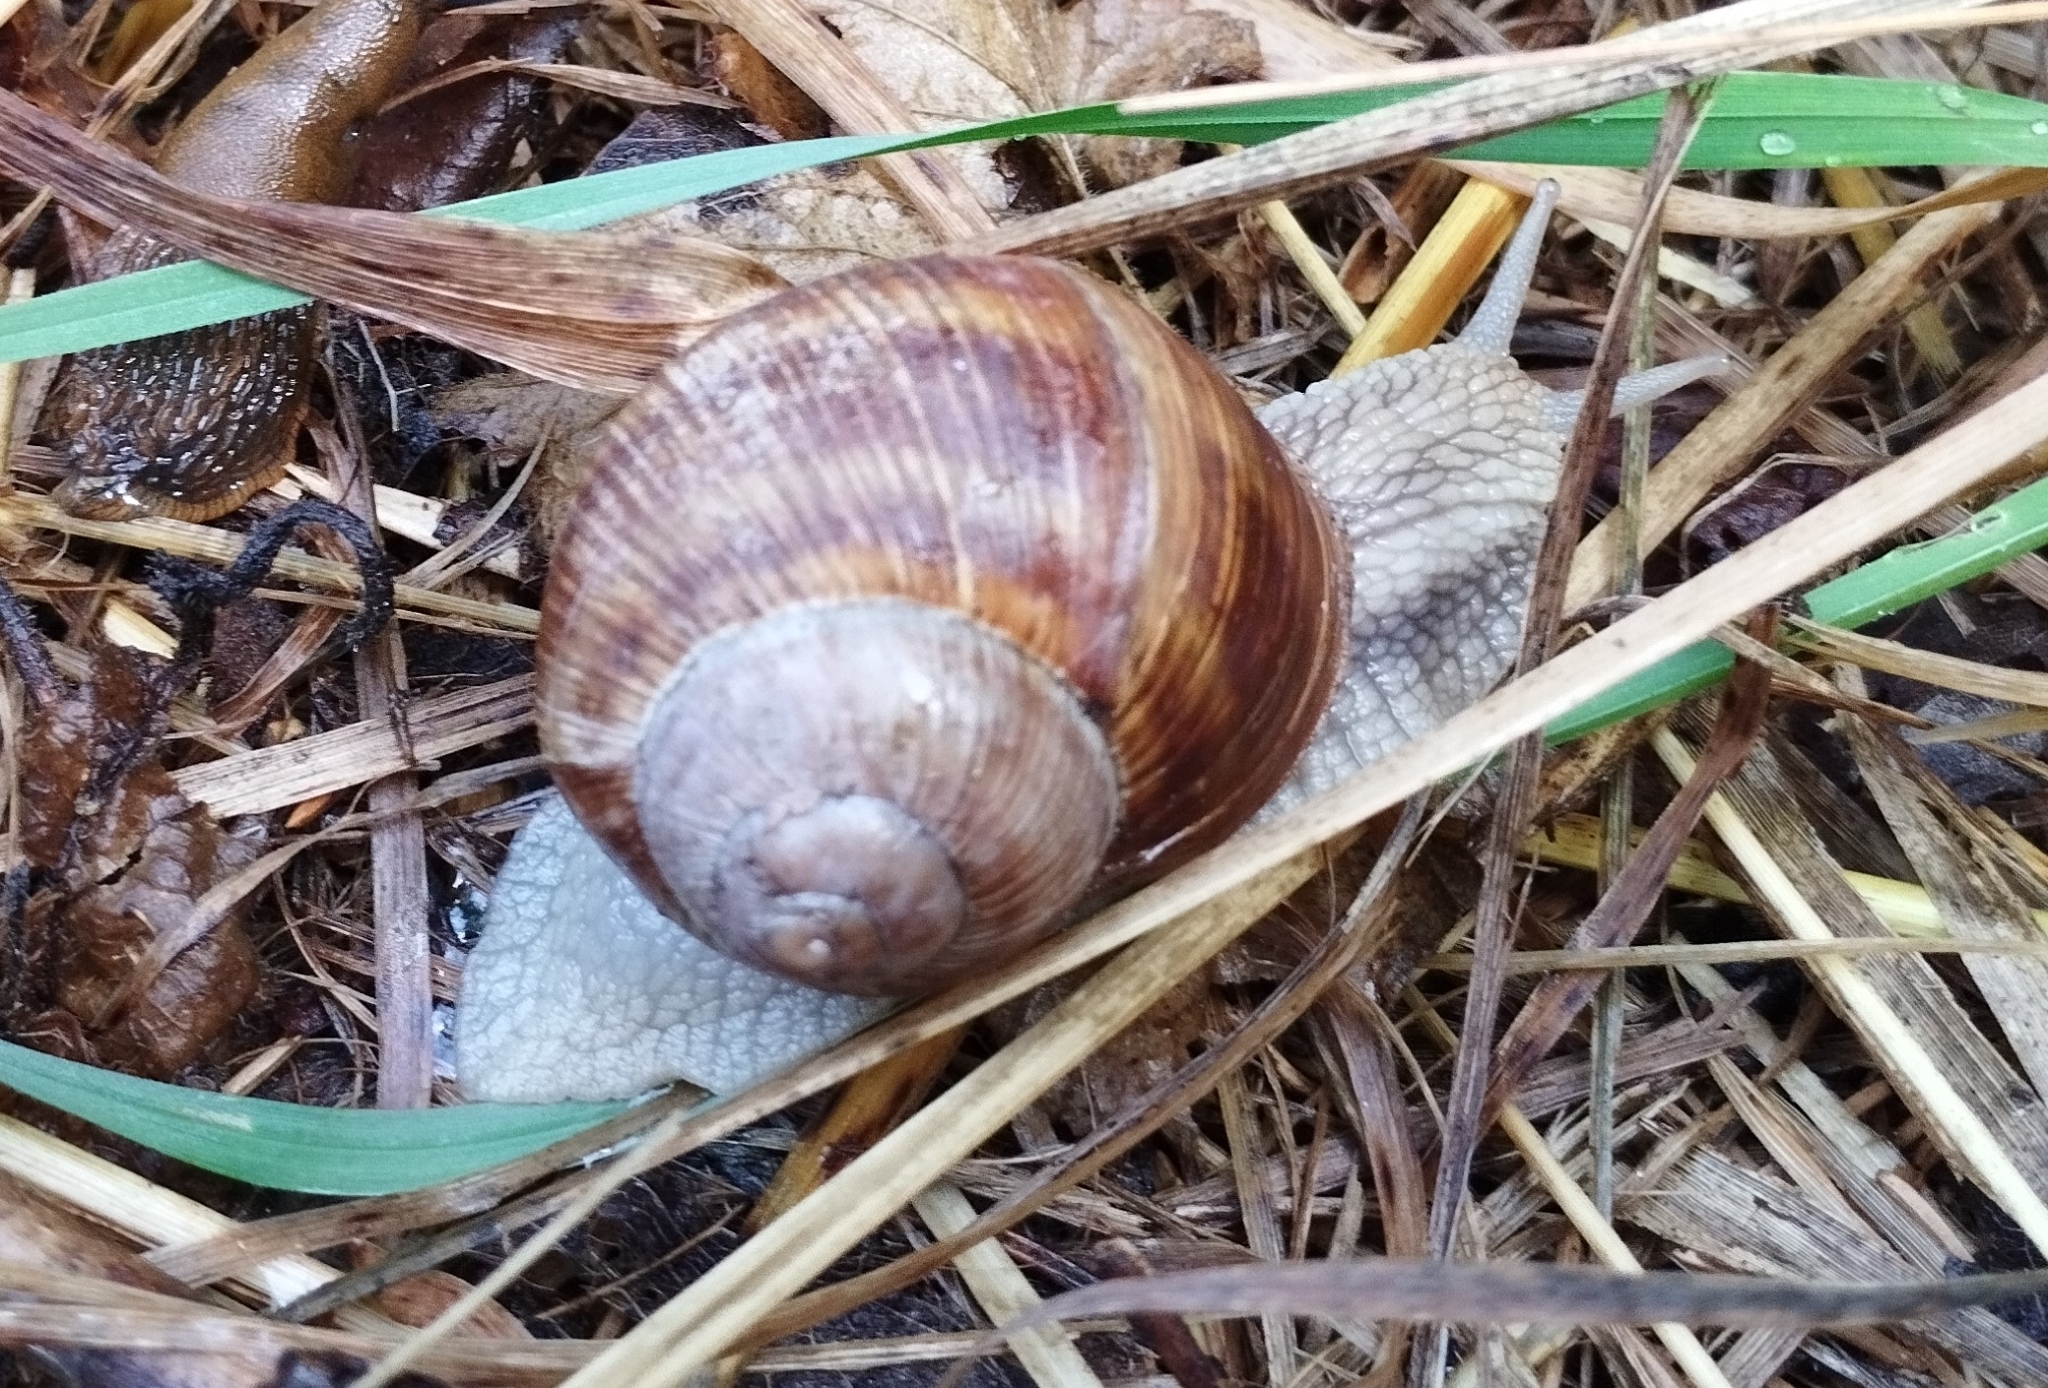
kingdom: Animalia
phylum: Mollusca
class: Gastropoda
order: Stylommatophora
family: Helicidae
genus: Helix
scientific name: Helix pomatia
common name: Roman snail
